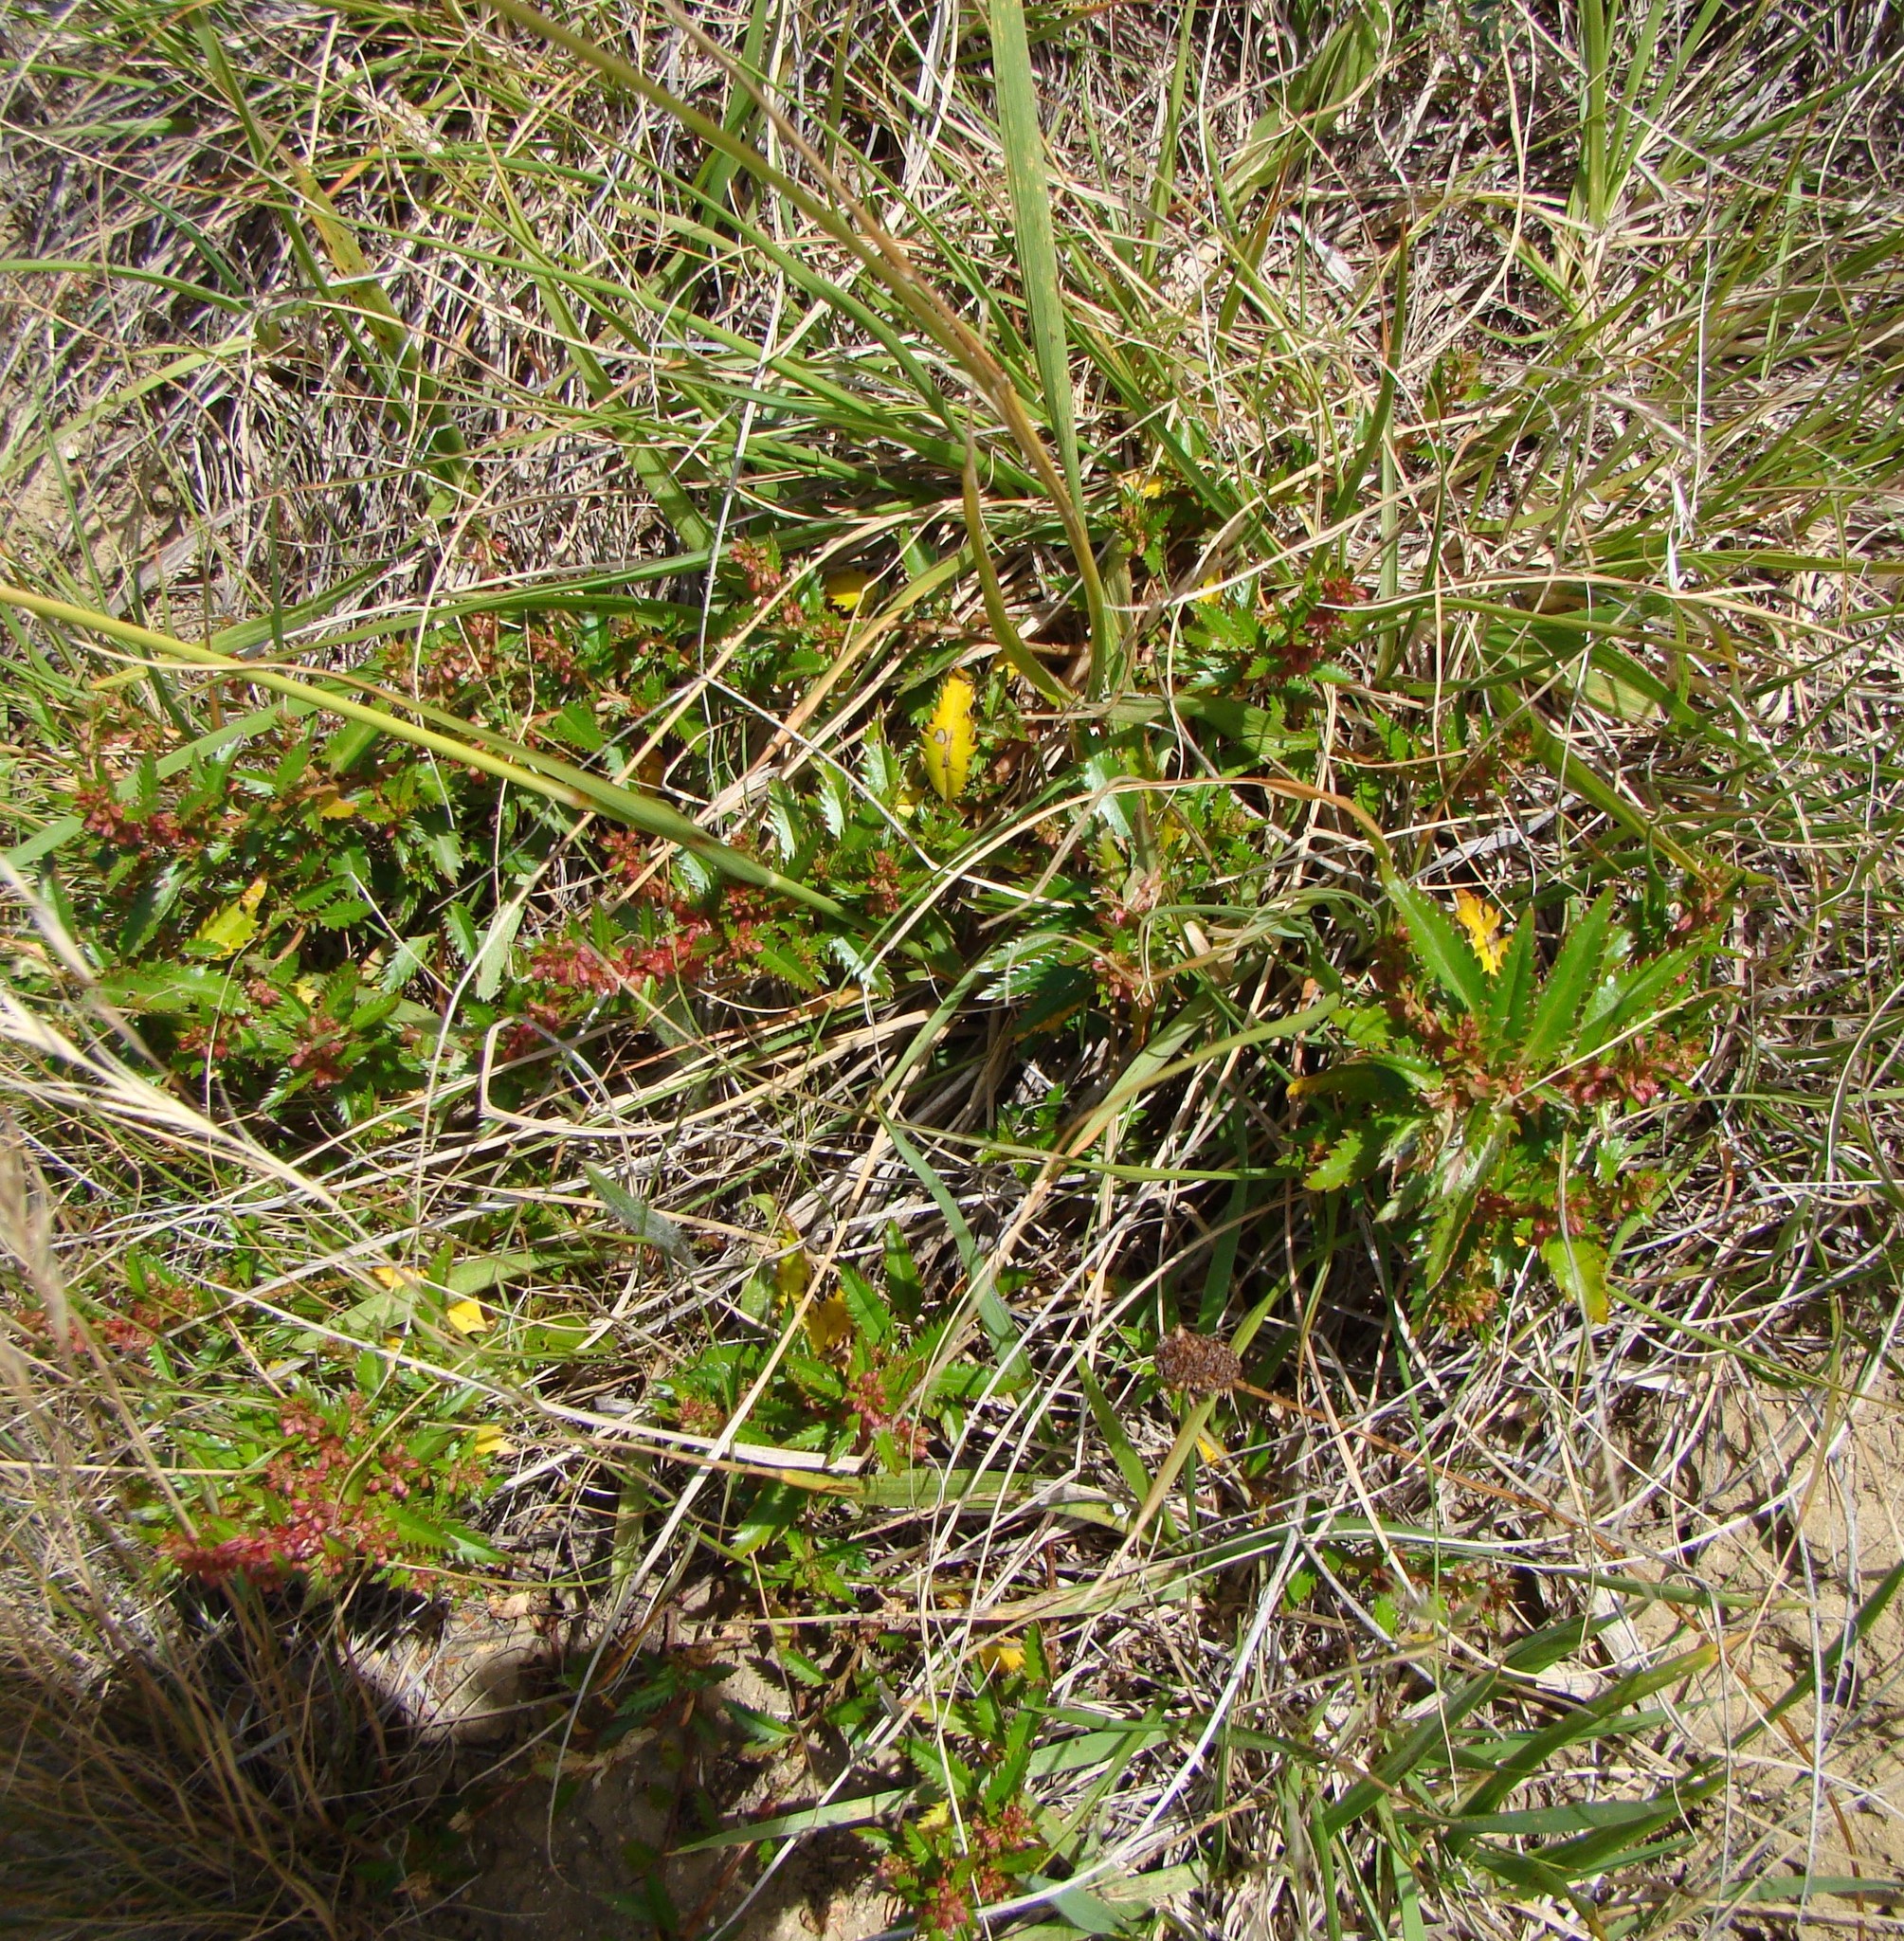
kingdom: Plantae
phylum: Tracheophyta
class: Magnoliopsida
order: Saxifragales
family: Haloragaceae
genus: Haloragis
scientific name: Haloragis erecta
